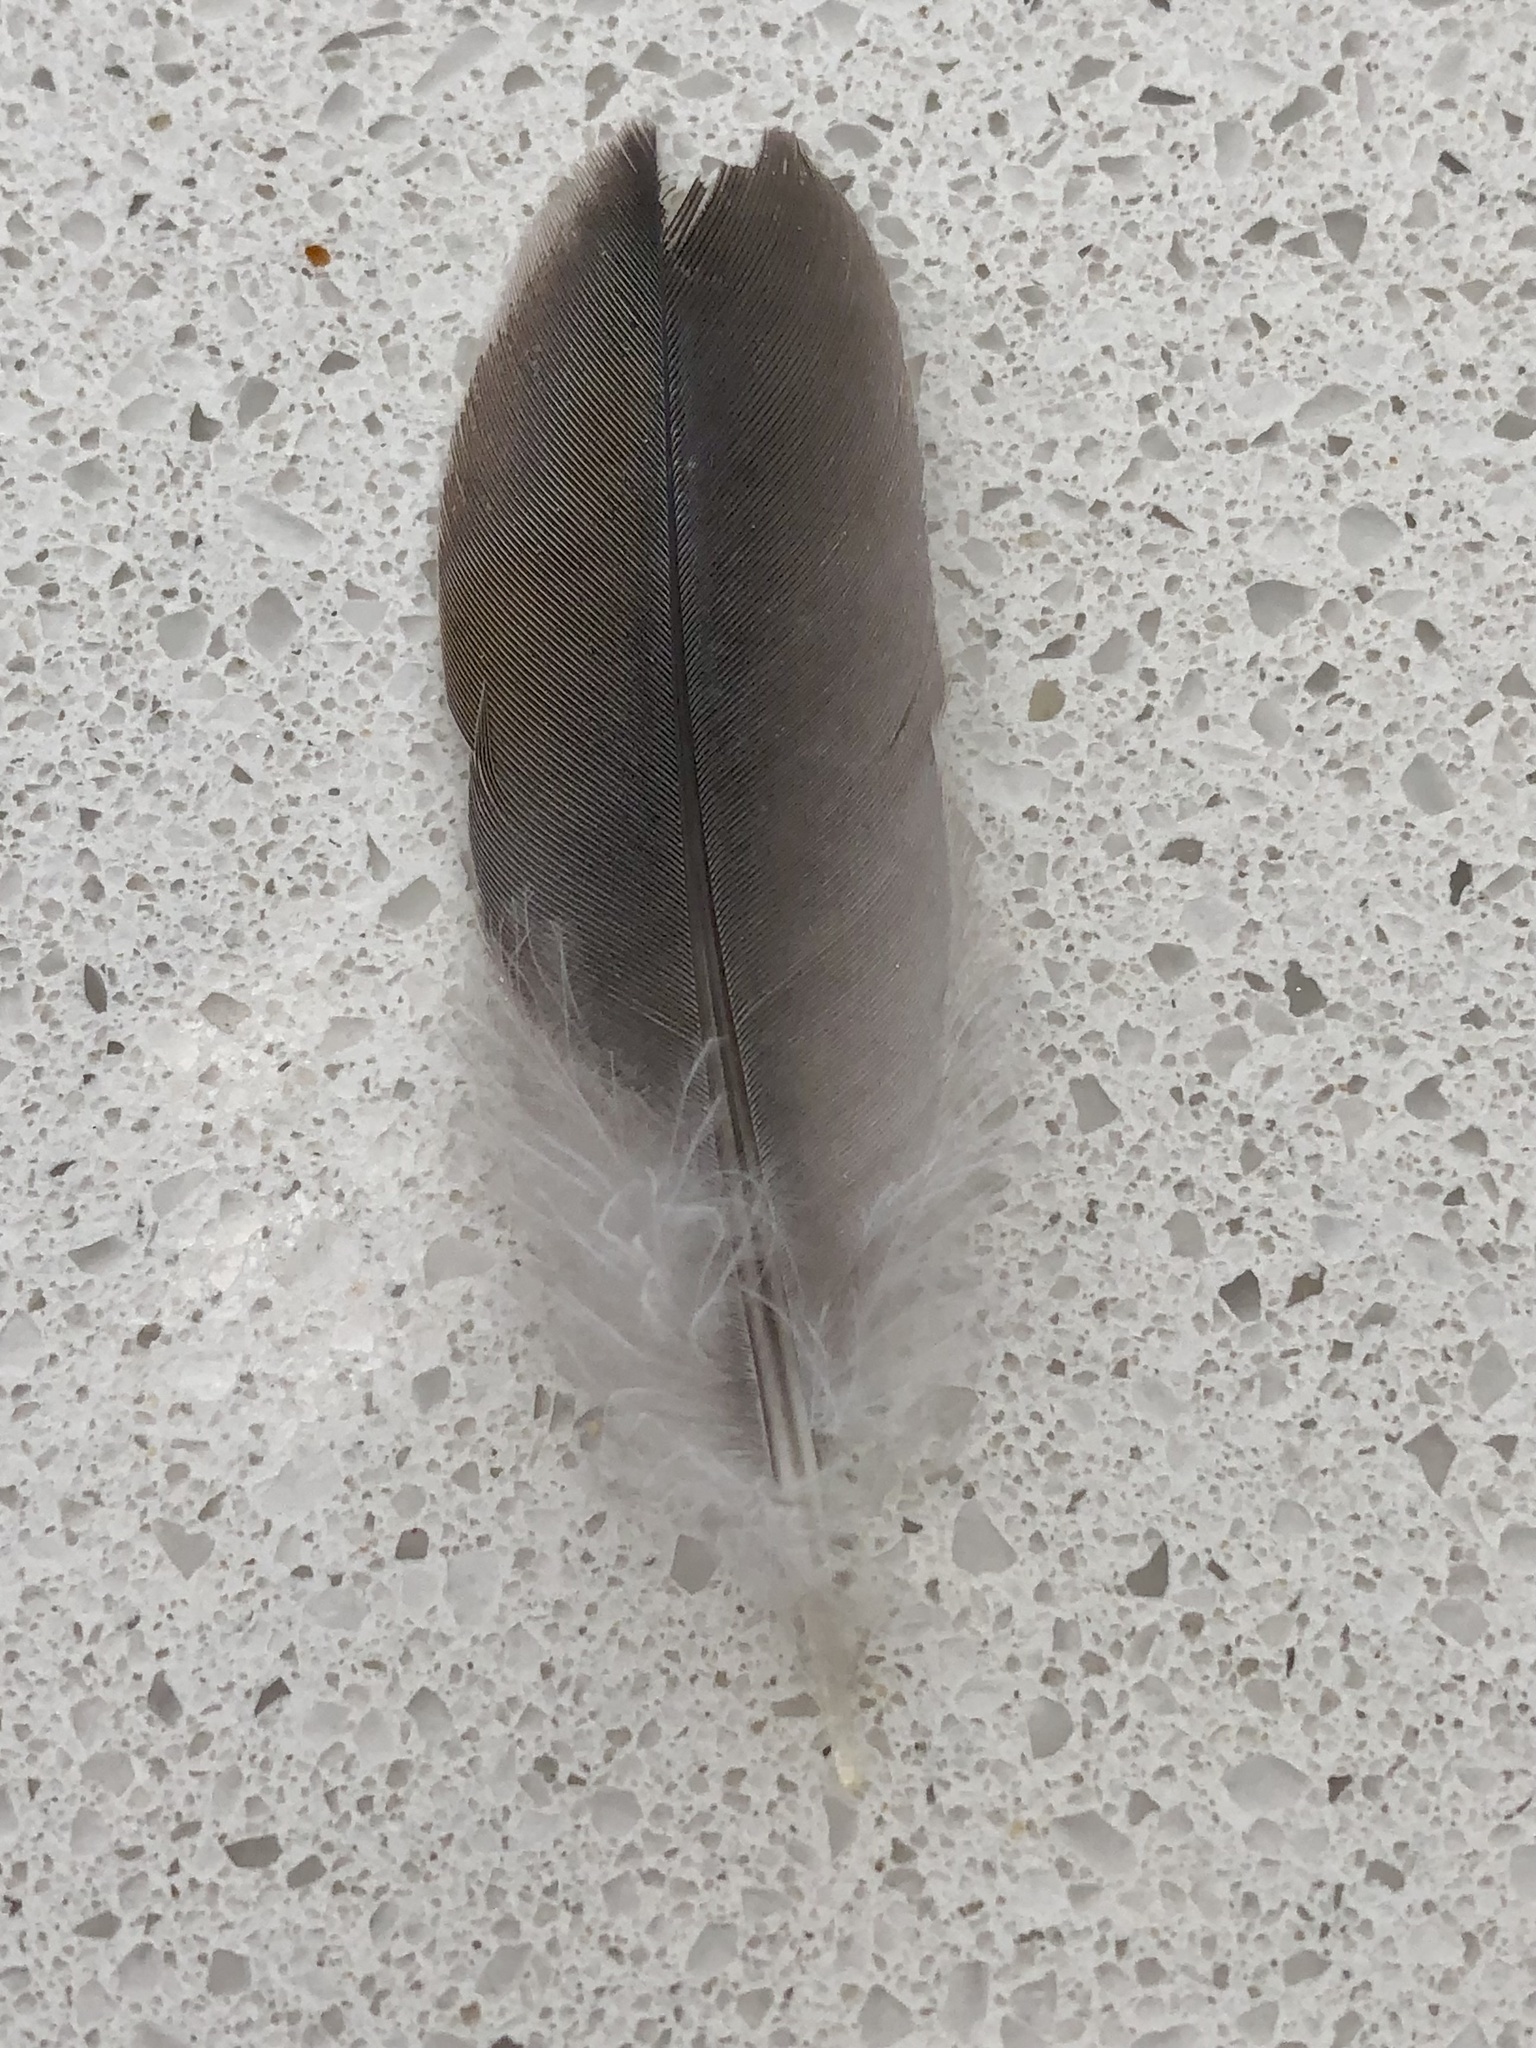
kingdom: Animalia
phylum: Chordata
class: Aves
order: Columbiformes
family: Columbidae
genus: Zenaida
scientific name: Zenaida macroura
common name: Mourning dove
